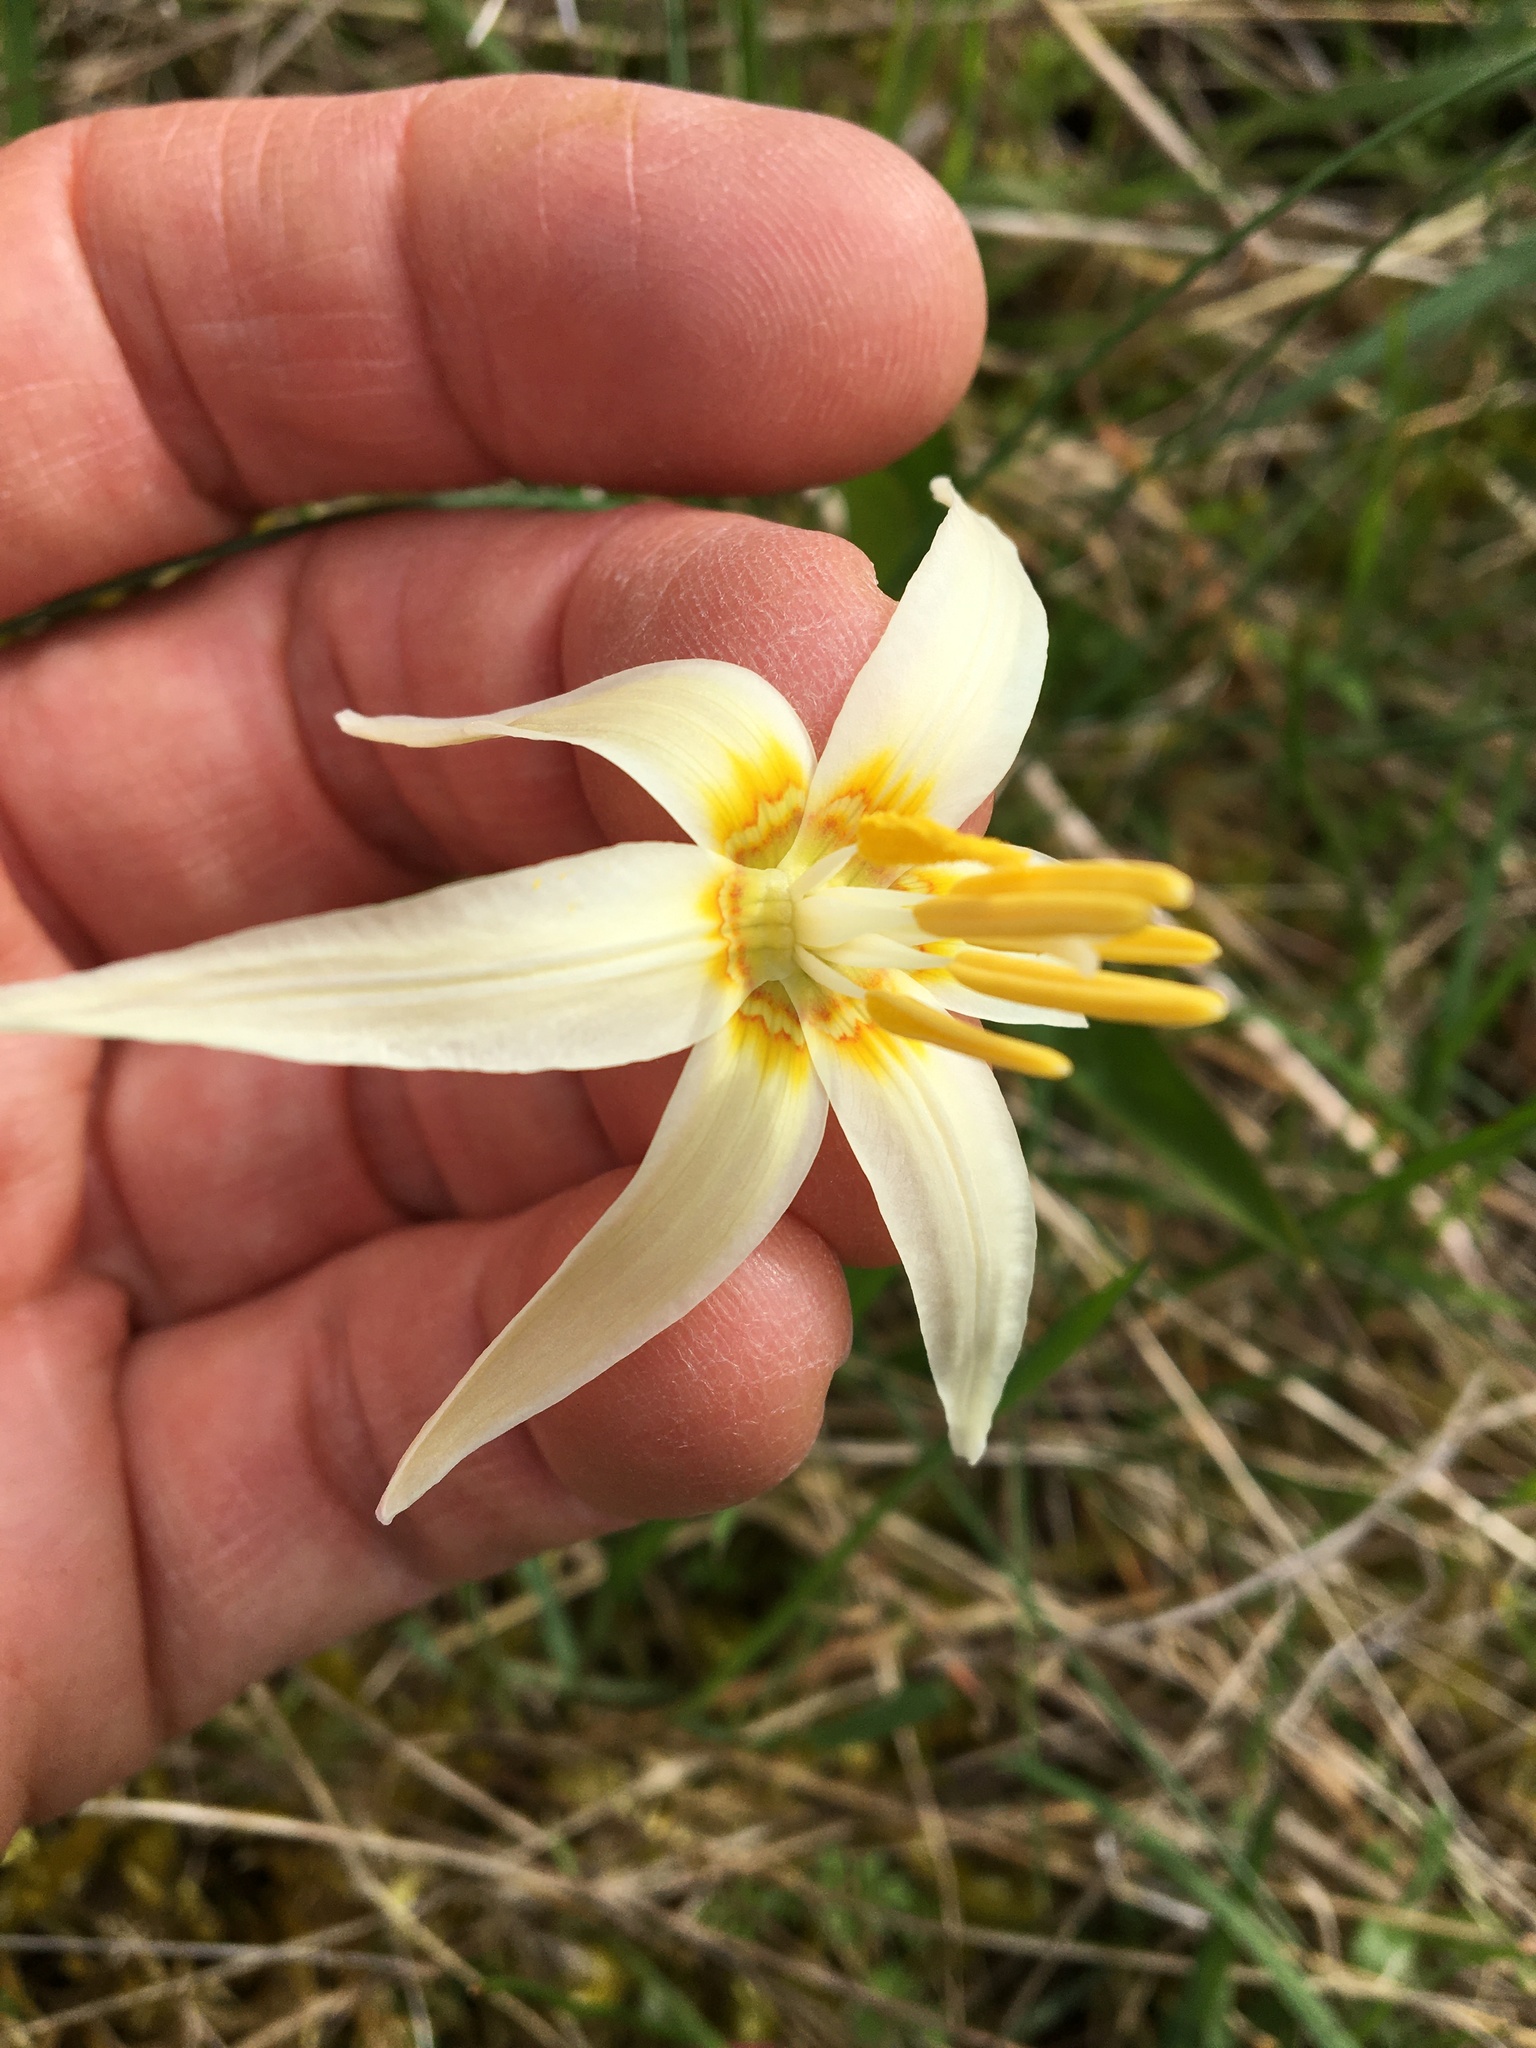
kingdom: Plantae
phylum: Tracheophyta
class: Liliopsida
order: Liliales
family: Liliaceae
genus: Erythronium
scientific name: Erythronium oregonum
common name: Giant adder's-tongue
